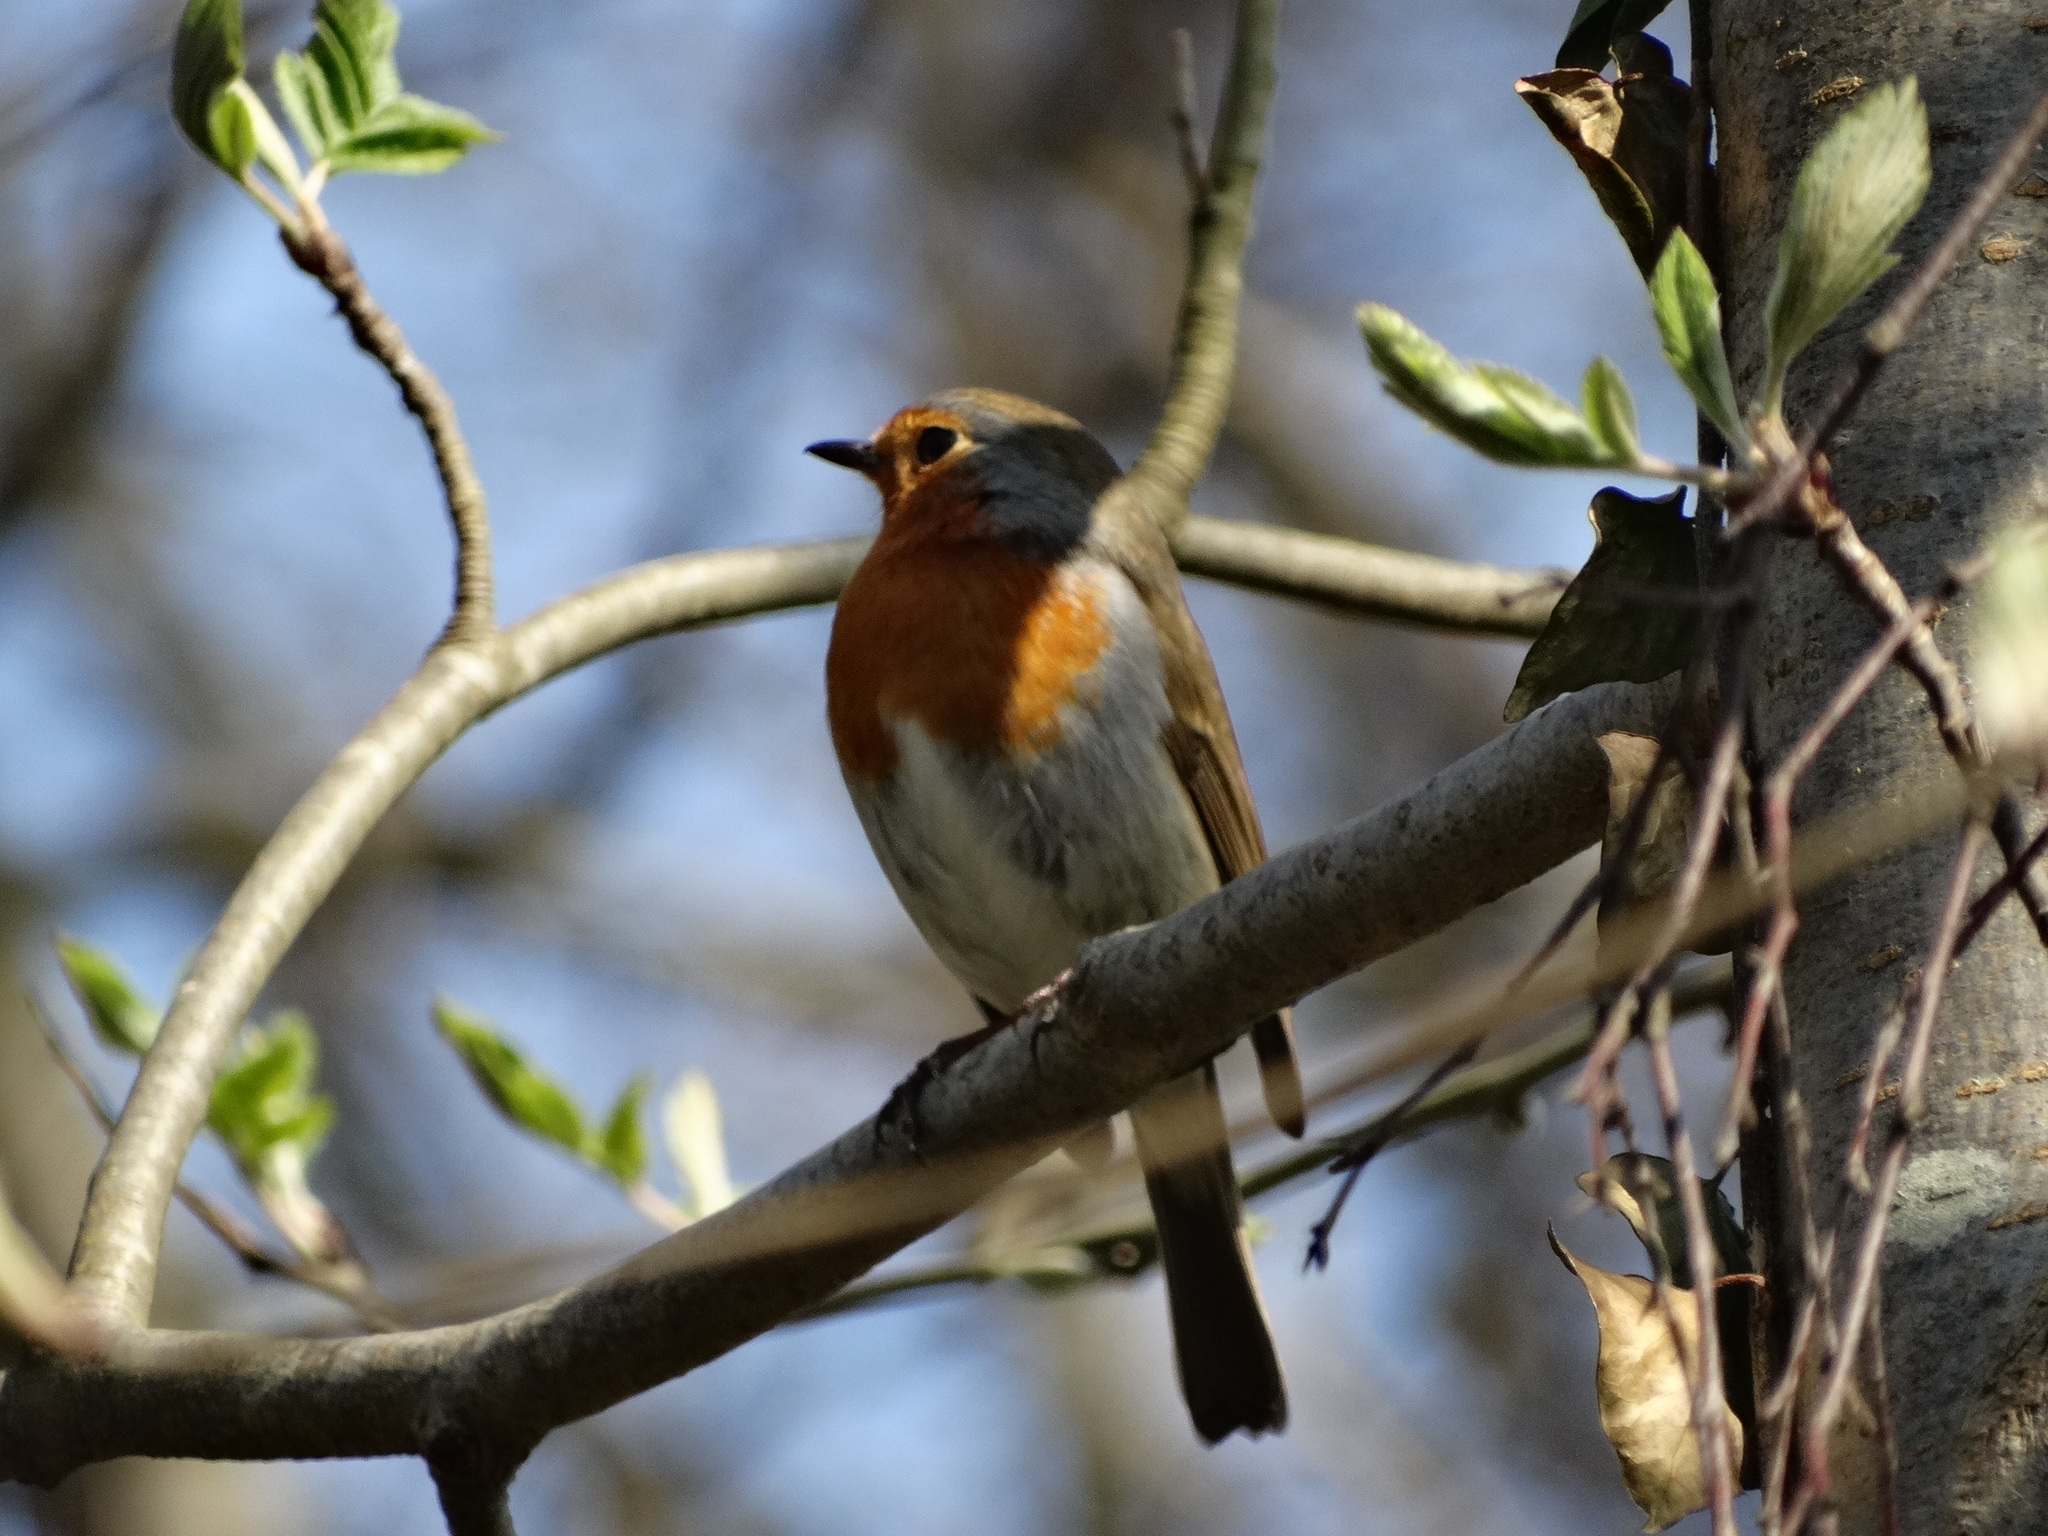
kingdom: Animalia
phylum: Chordata
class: Aves
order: Passeriformes
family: Muscicapidae
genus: Erithacus
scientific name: Erithacus rubecula
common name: European robin
